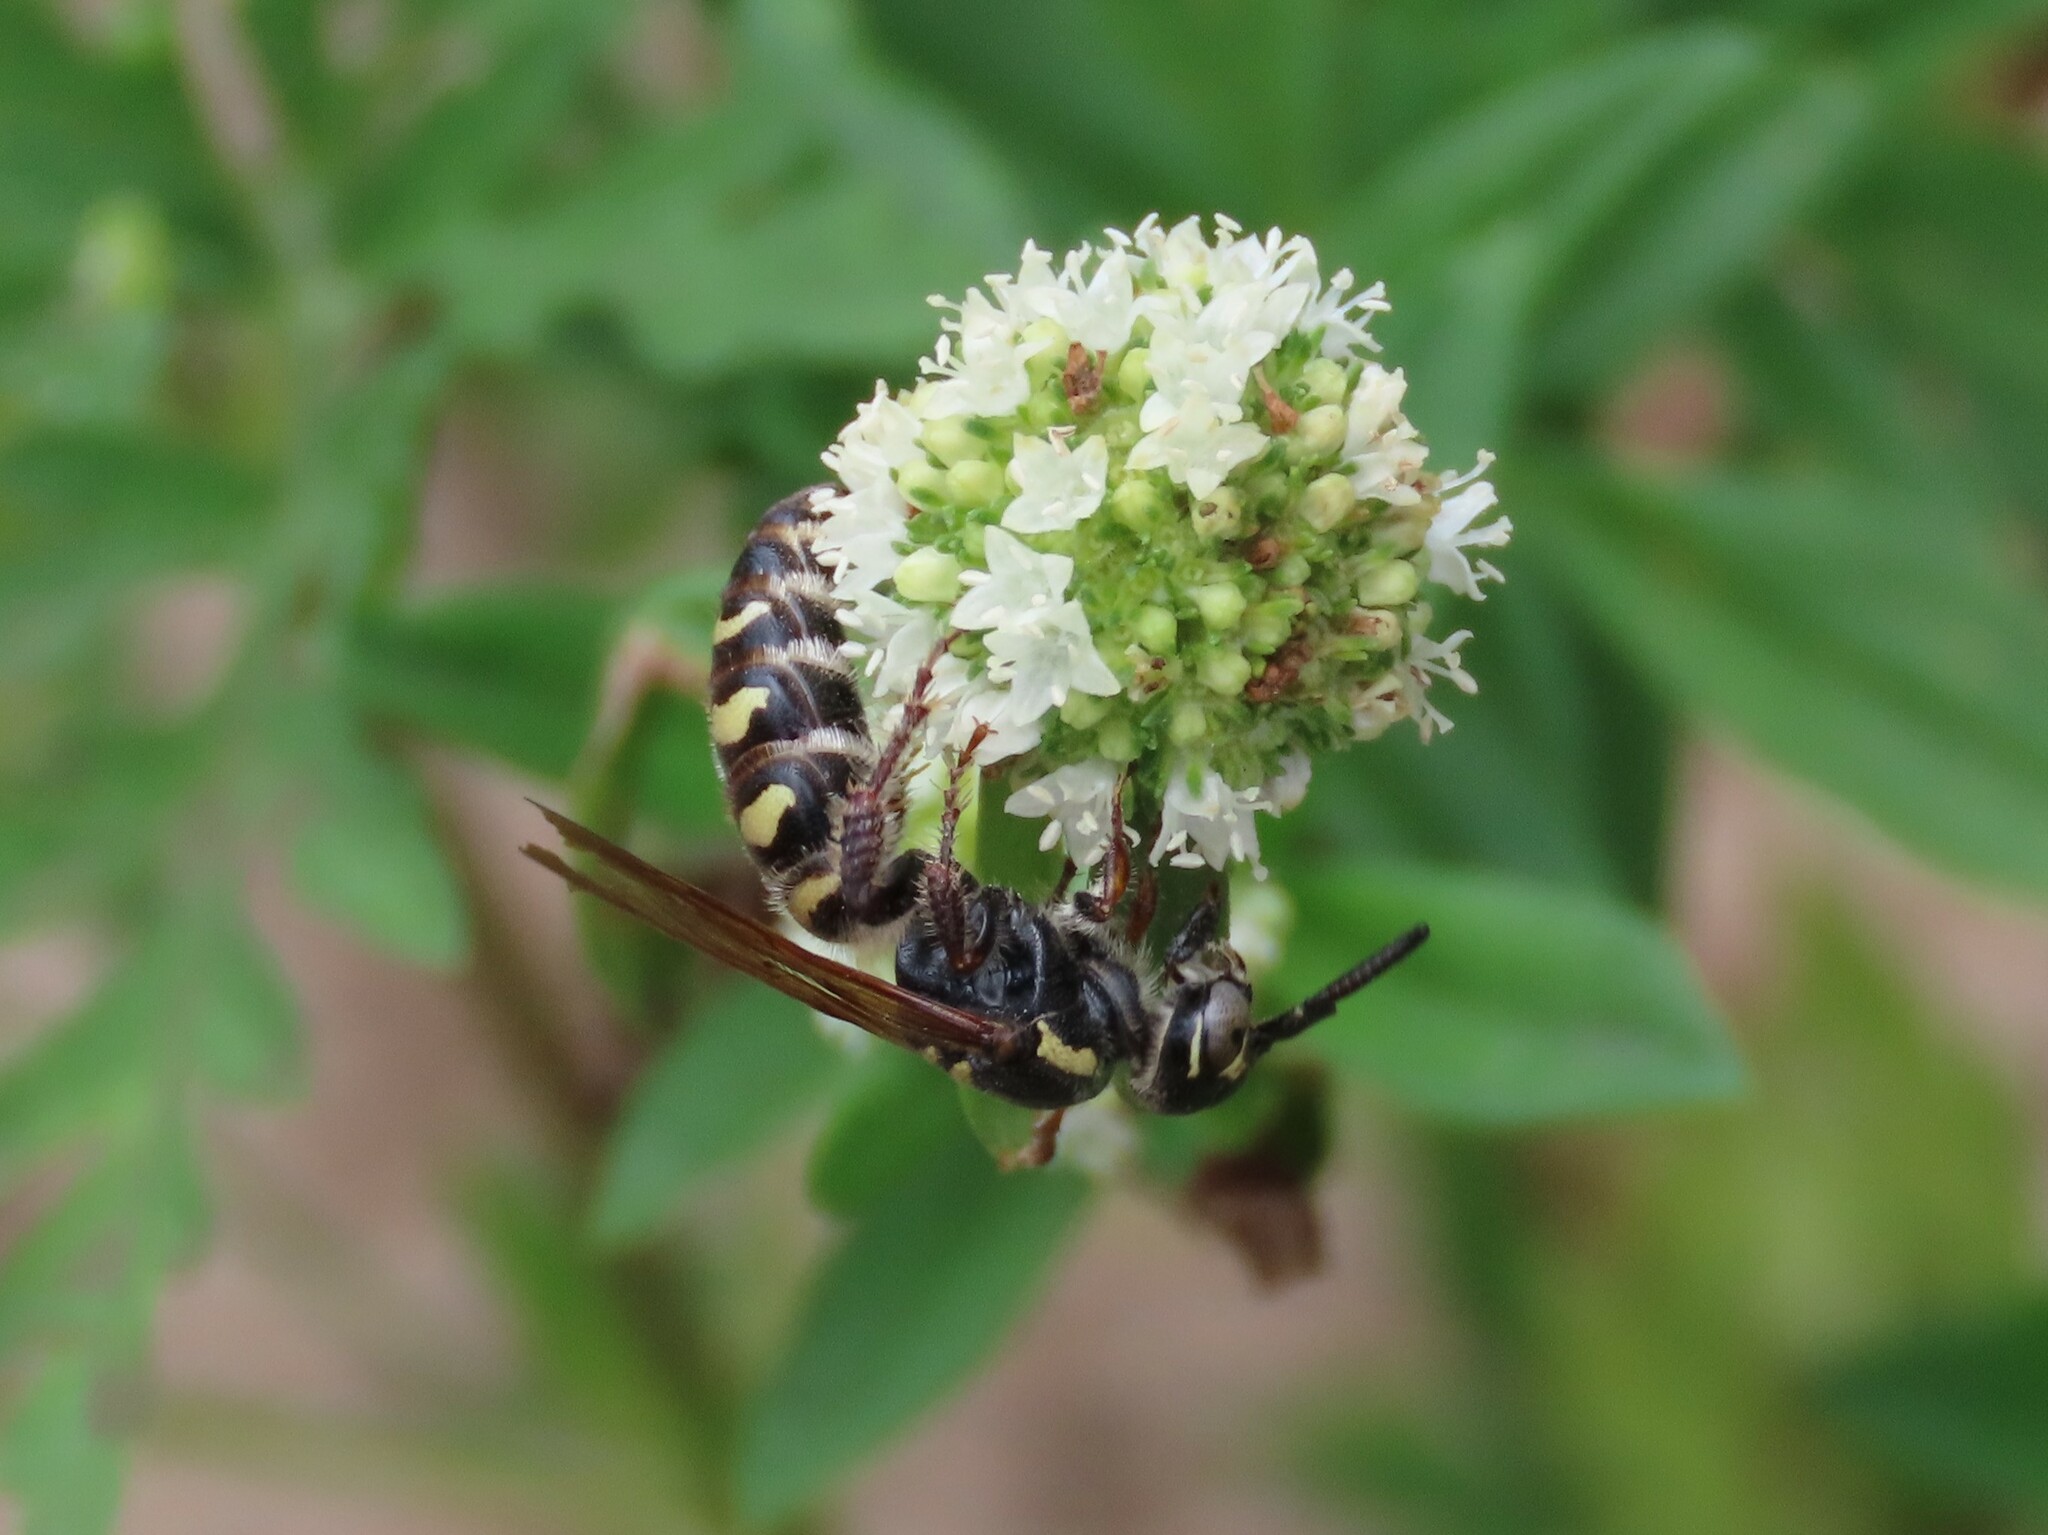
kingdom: Animalia
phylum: Arthropoda
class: Insecta
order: Hymenoptera
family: Scoliidae
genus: Colpa
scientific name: Colpa octomaculata
